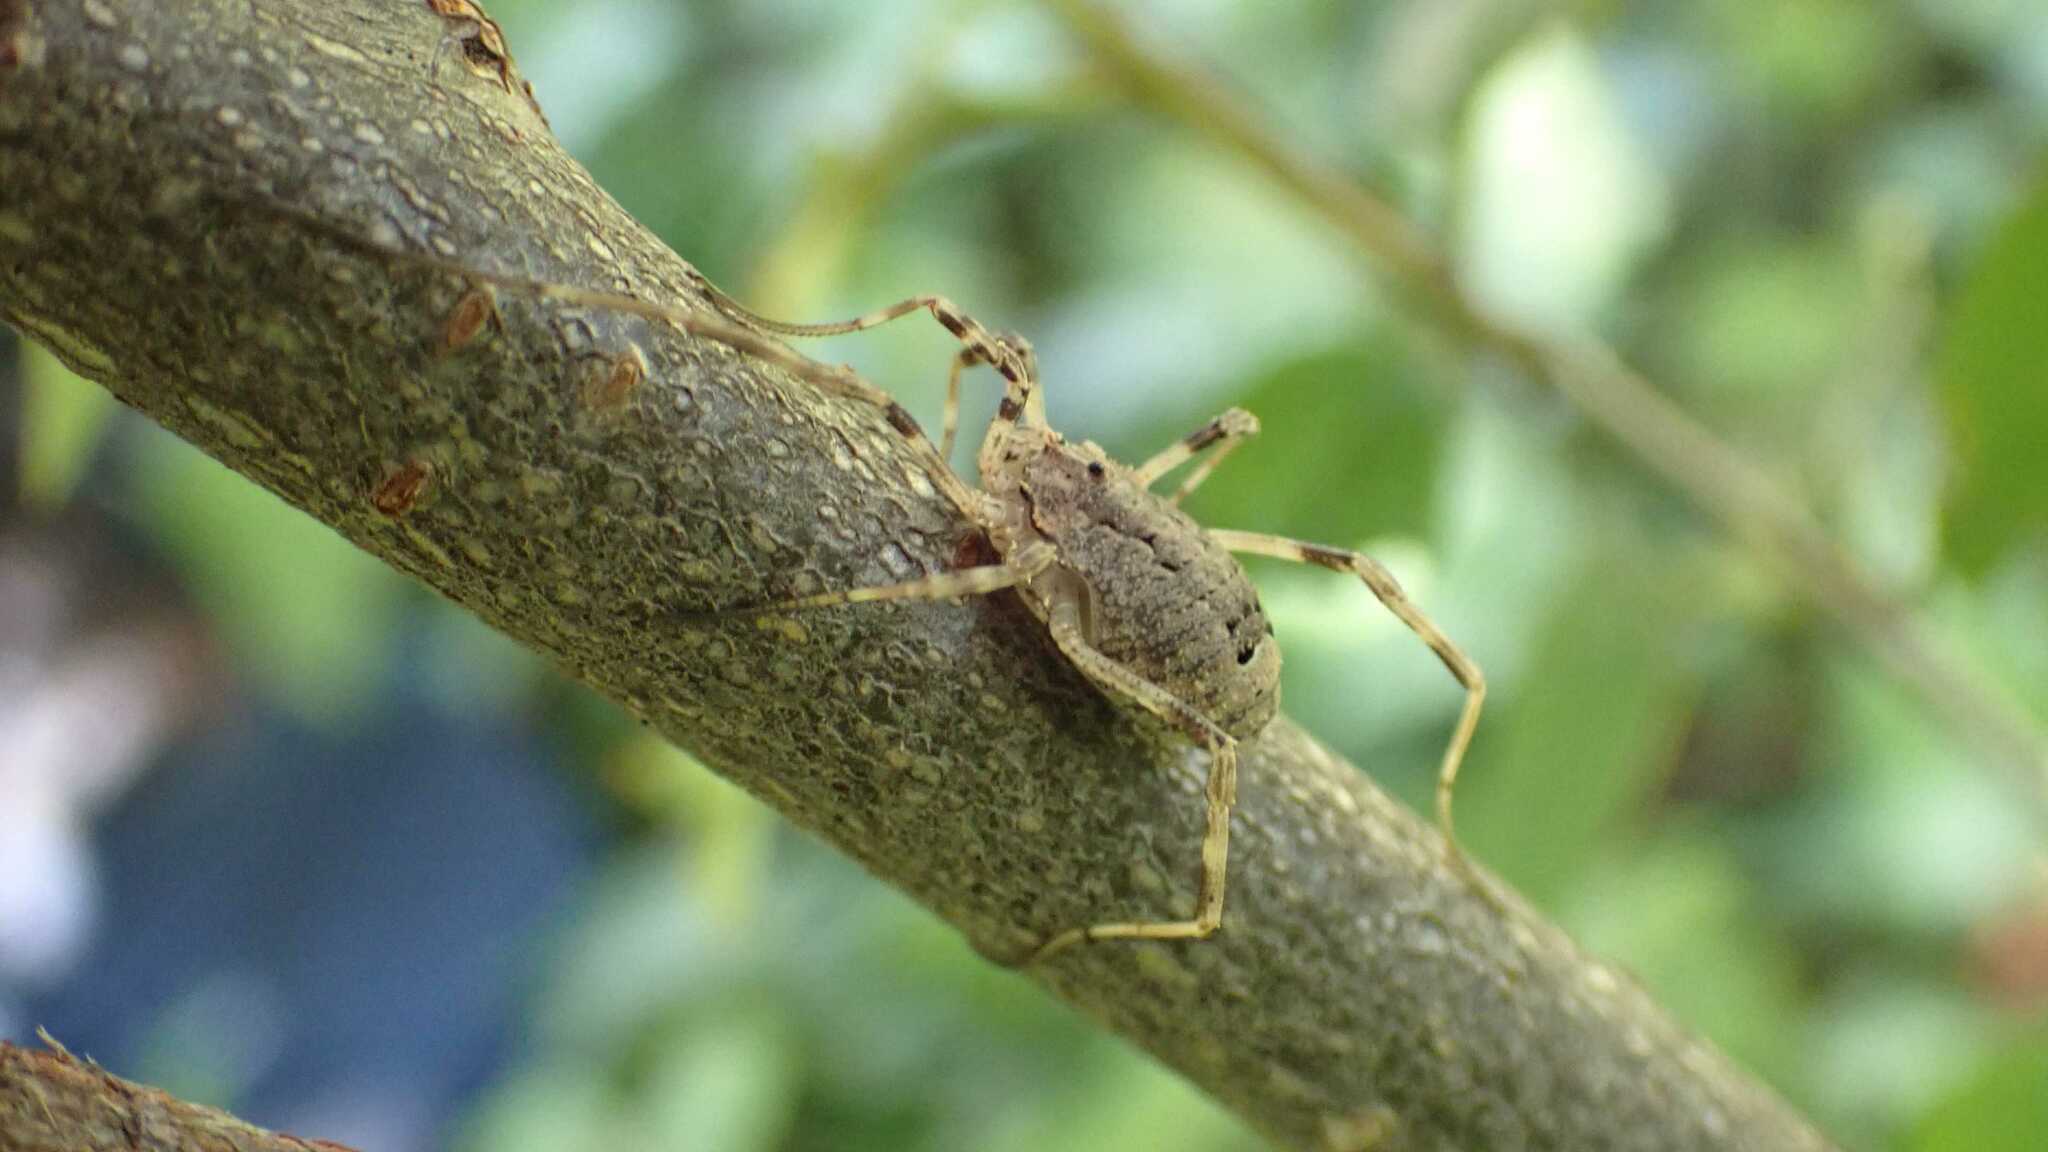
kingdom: Animalia
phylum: Arthropoda
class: Arachnida
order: Opiliones
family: Phalangiidae
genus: Odiellus
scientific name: Odiellus spinosus
